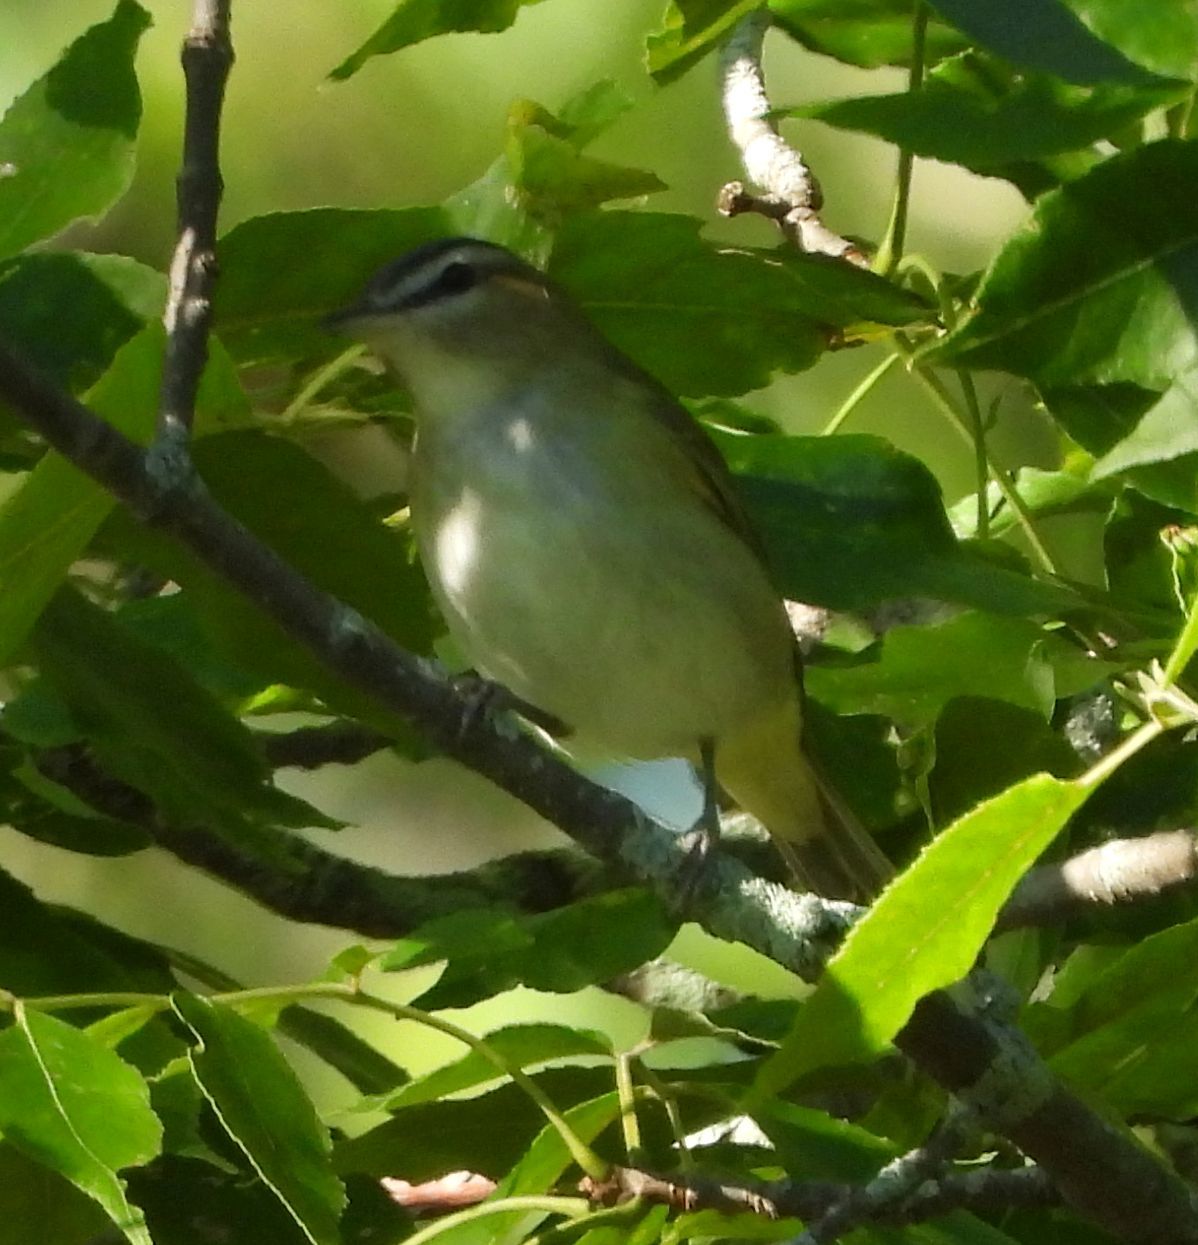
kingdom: Animalia
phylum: Chordata
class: Aves
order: Passeriformes
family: Vireonidae
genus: Vireo
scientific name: Vireo olivaceus
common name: Red-eyed vireo
